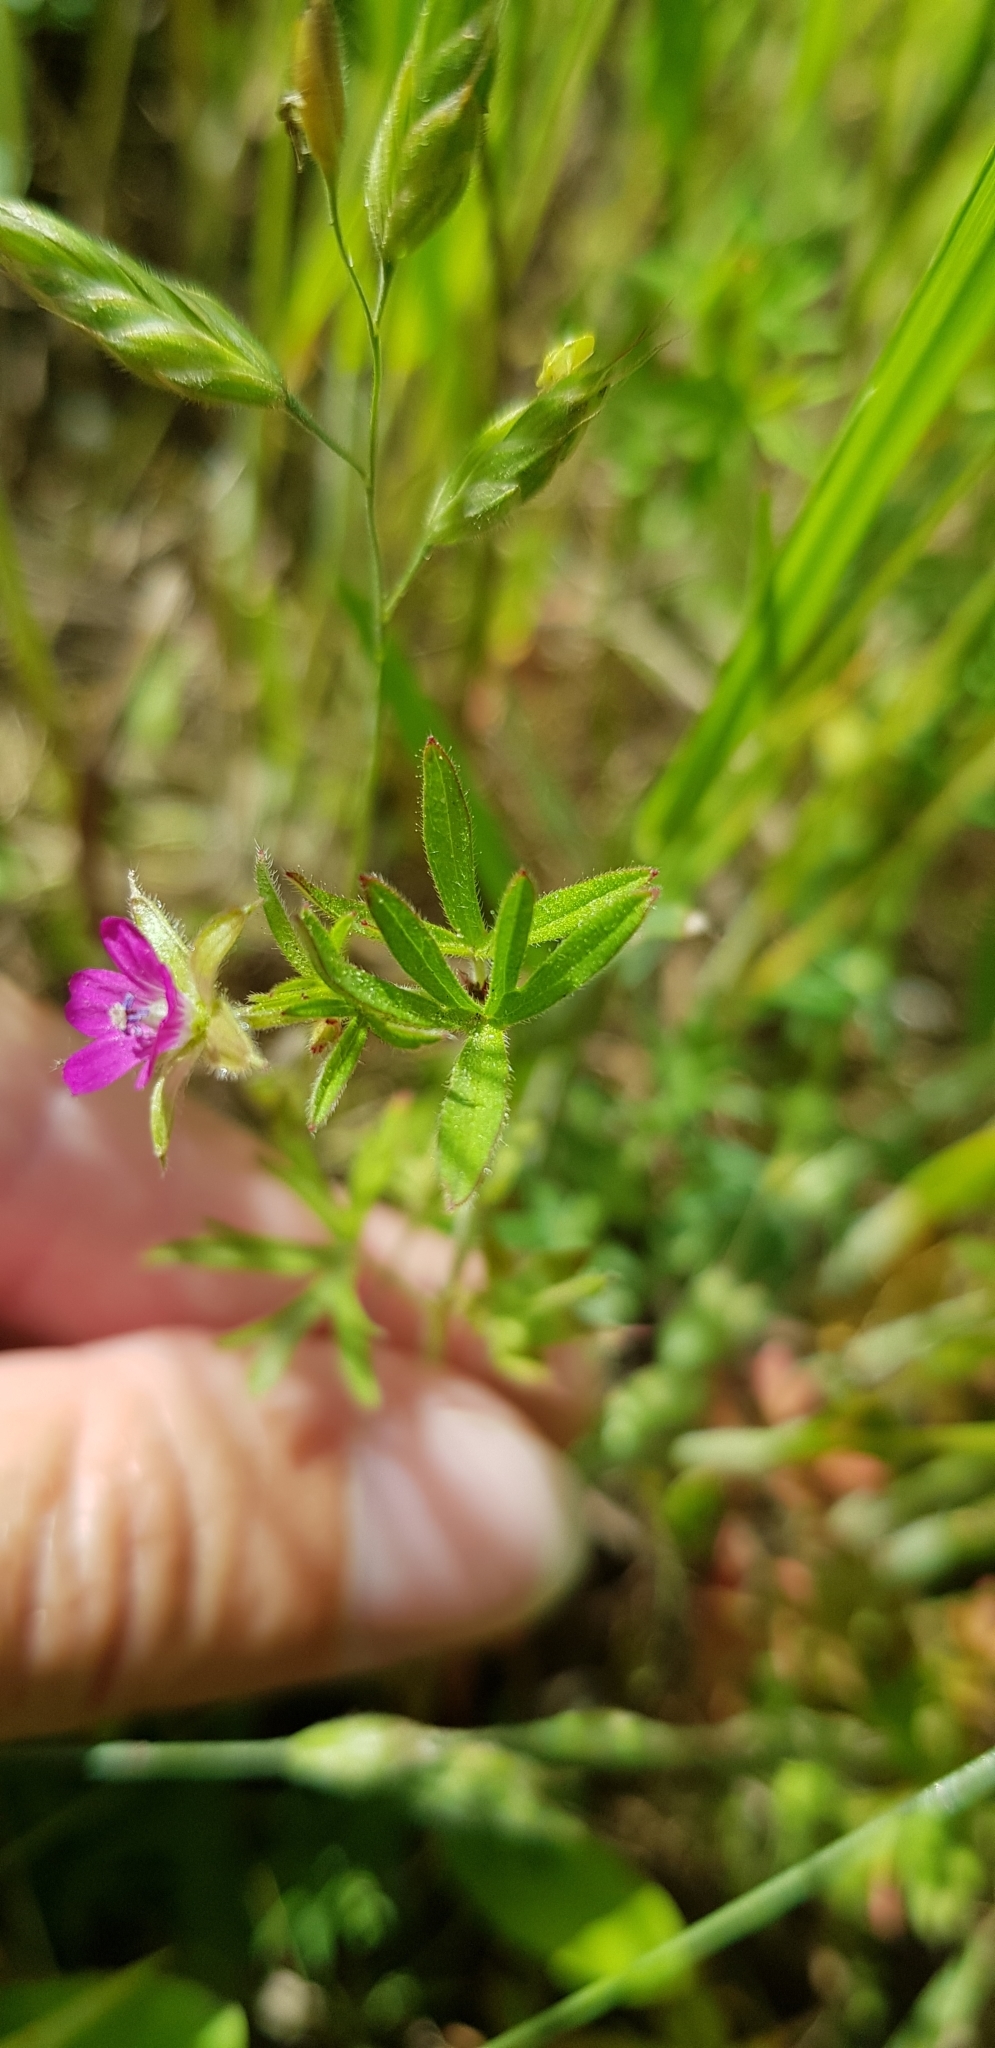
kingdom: Plantae
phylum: Tracheophyta
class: Magnoliopsida
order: Geraniales
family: Geraniaceae
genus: Geranium
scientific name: Geranium dissectum
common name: Cut-leaved crane's-bill
